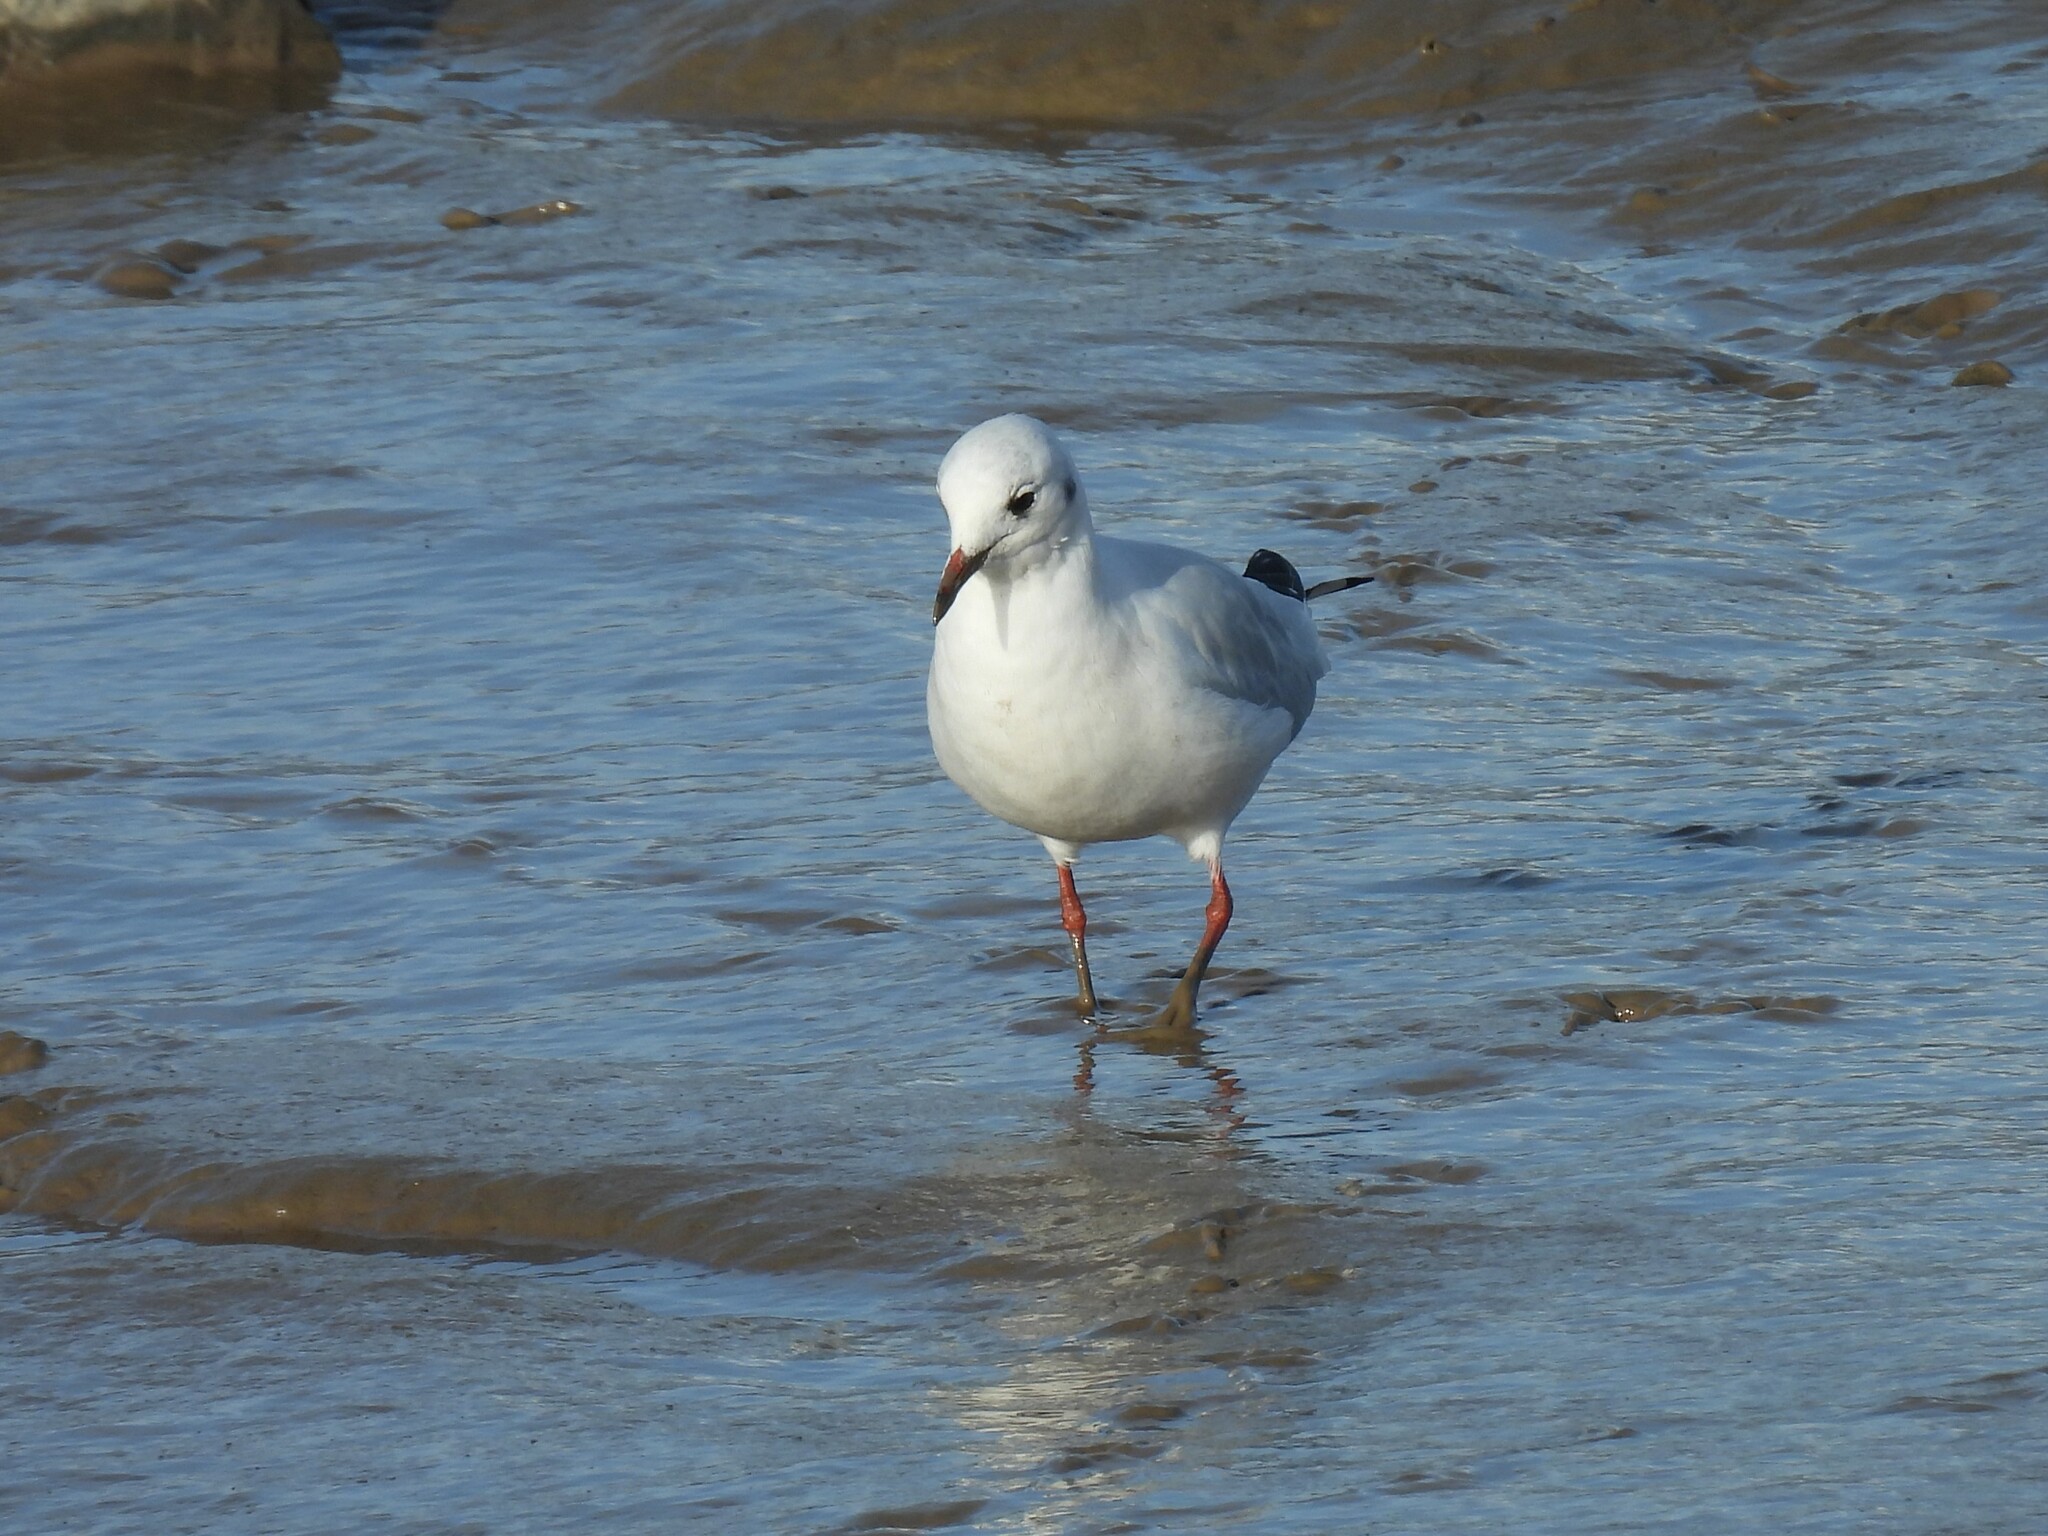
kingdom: Animalia
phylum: Chordata
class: Aves
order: Charadriiformes
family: Laridae
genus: Chroicocephalus
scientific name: Chroicocephalus ridibundus
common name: Black-headed gull
